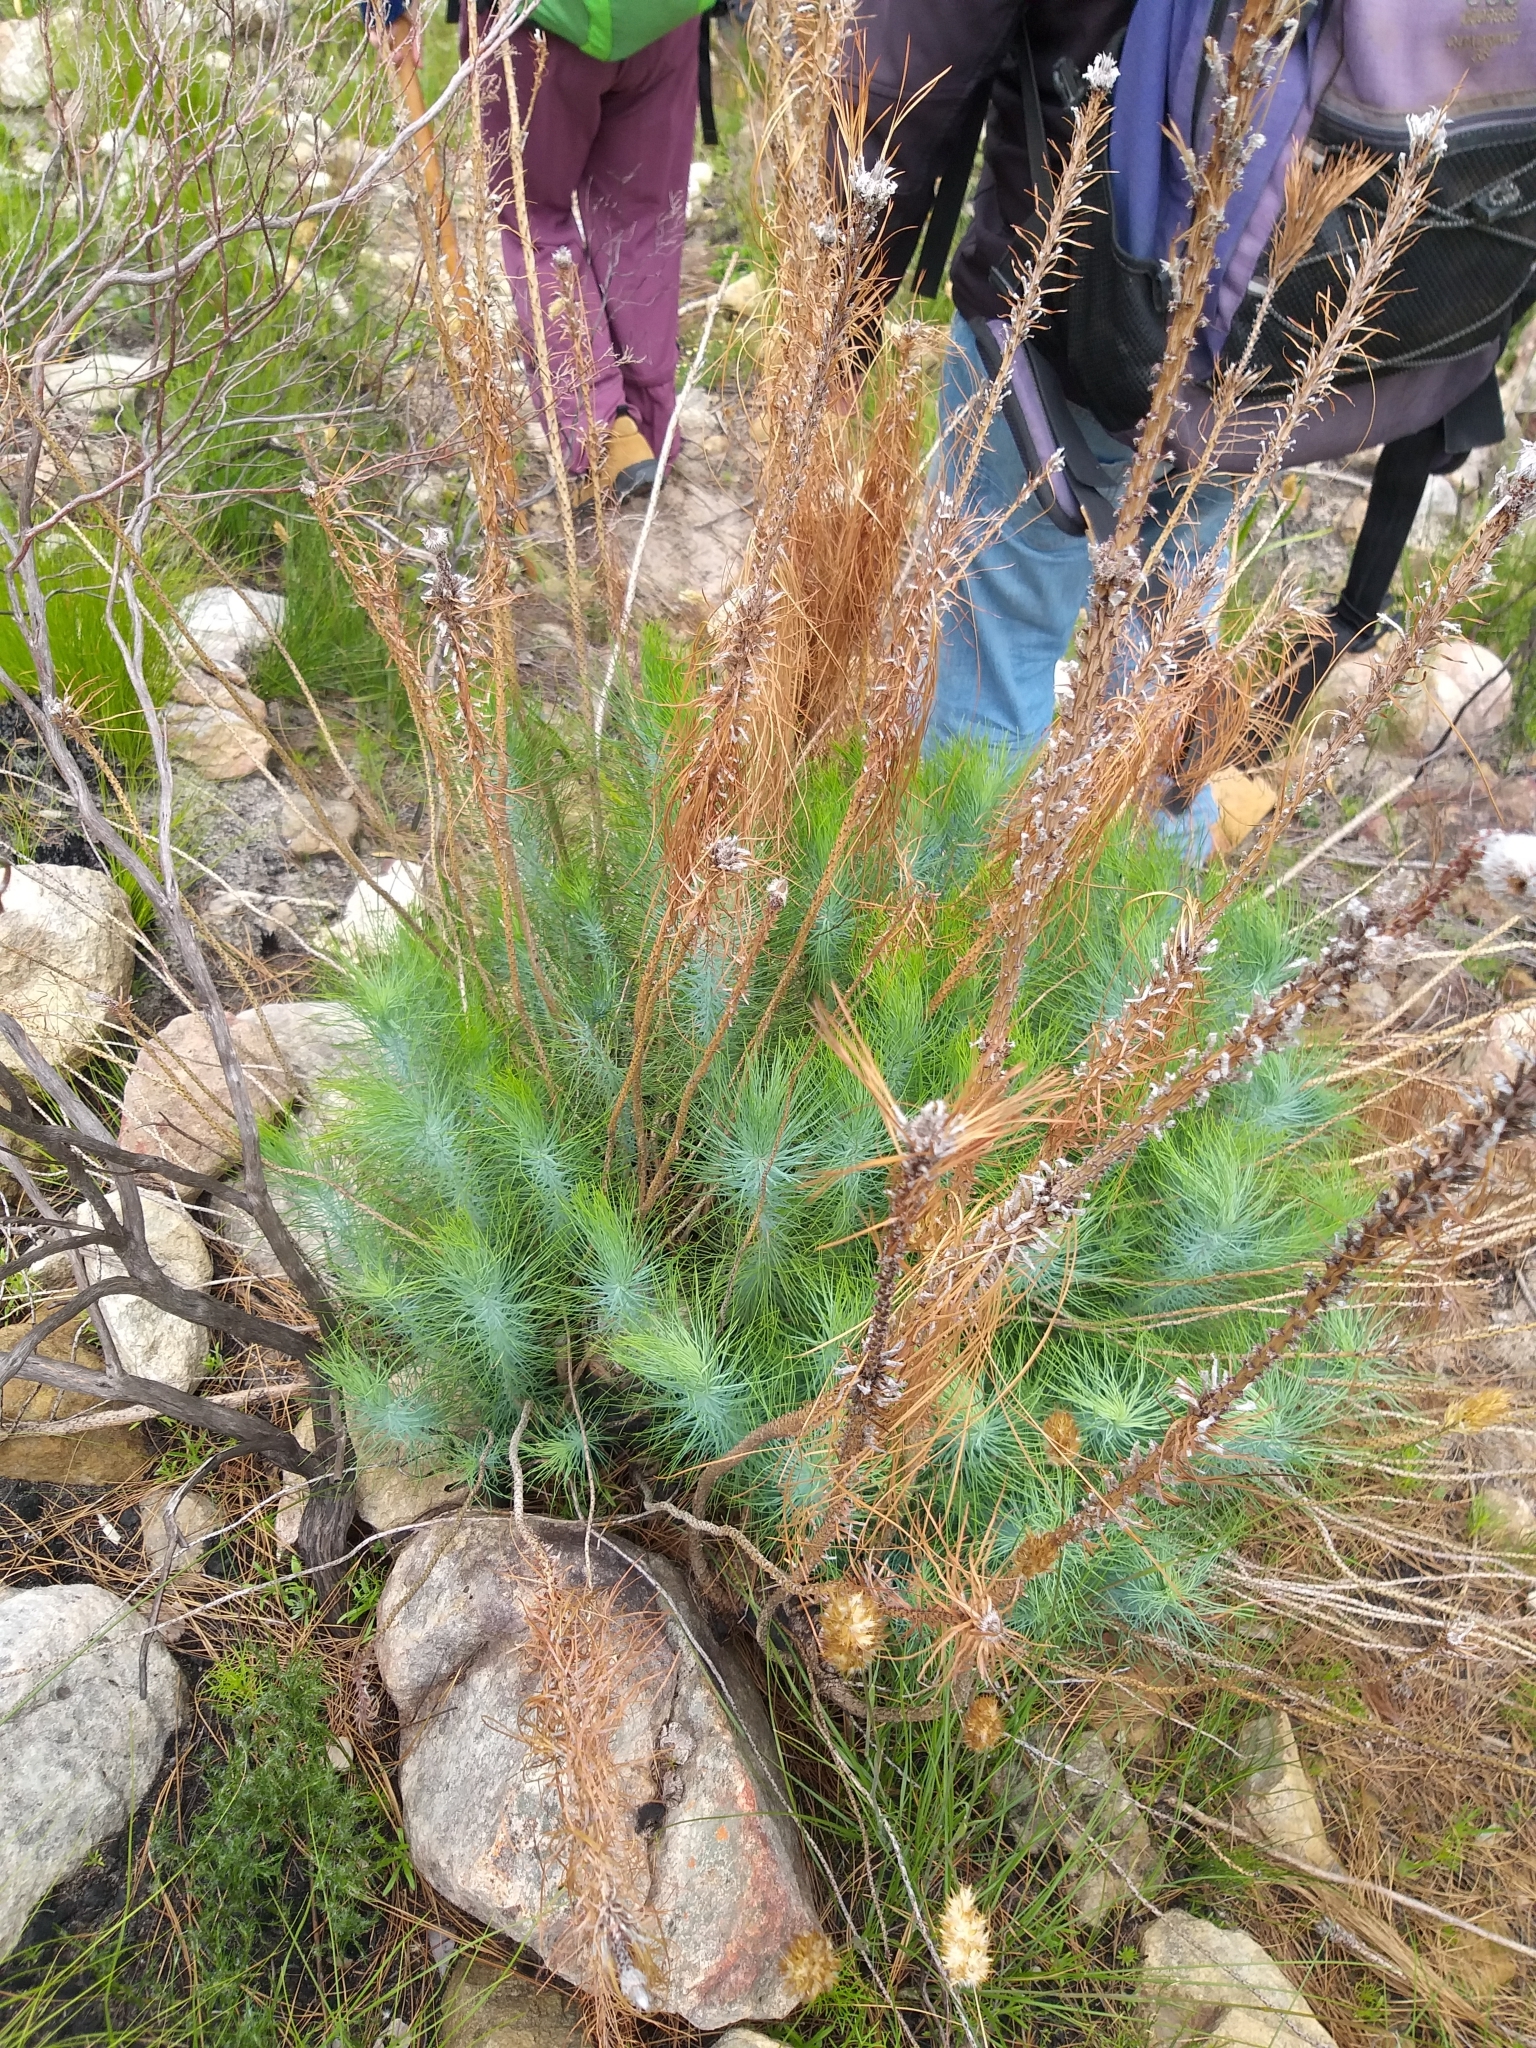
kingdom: Plantae
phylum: Tracheophyta
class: Pinopsida
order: Pinales
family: Pinaceae
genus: Pinus
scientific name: Pinus canariensis
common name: Canary islands pine
